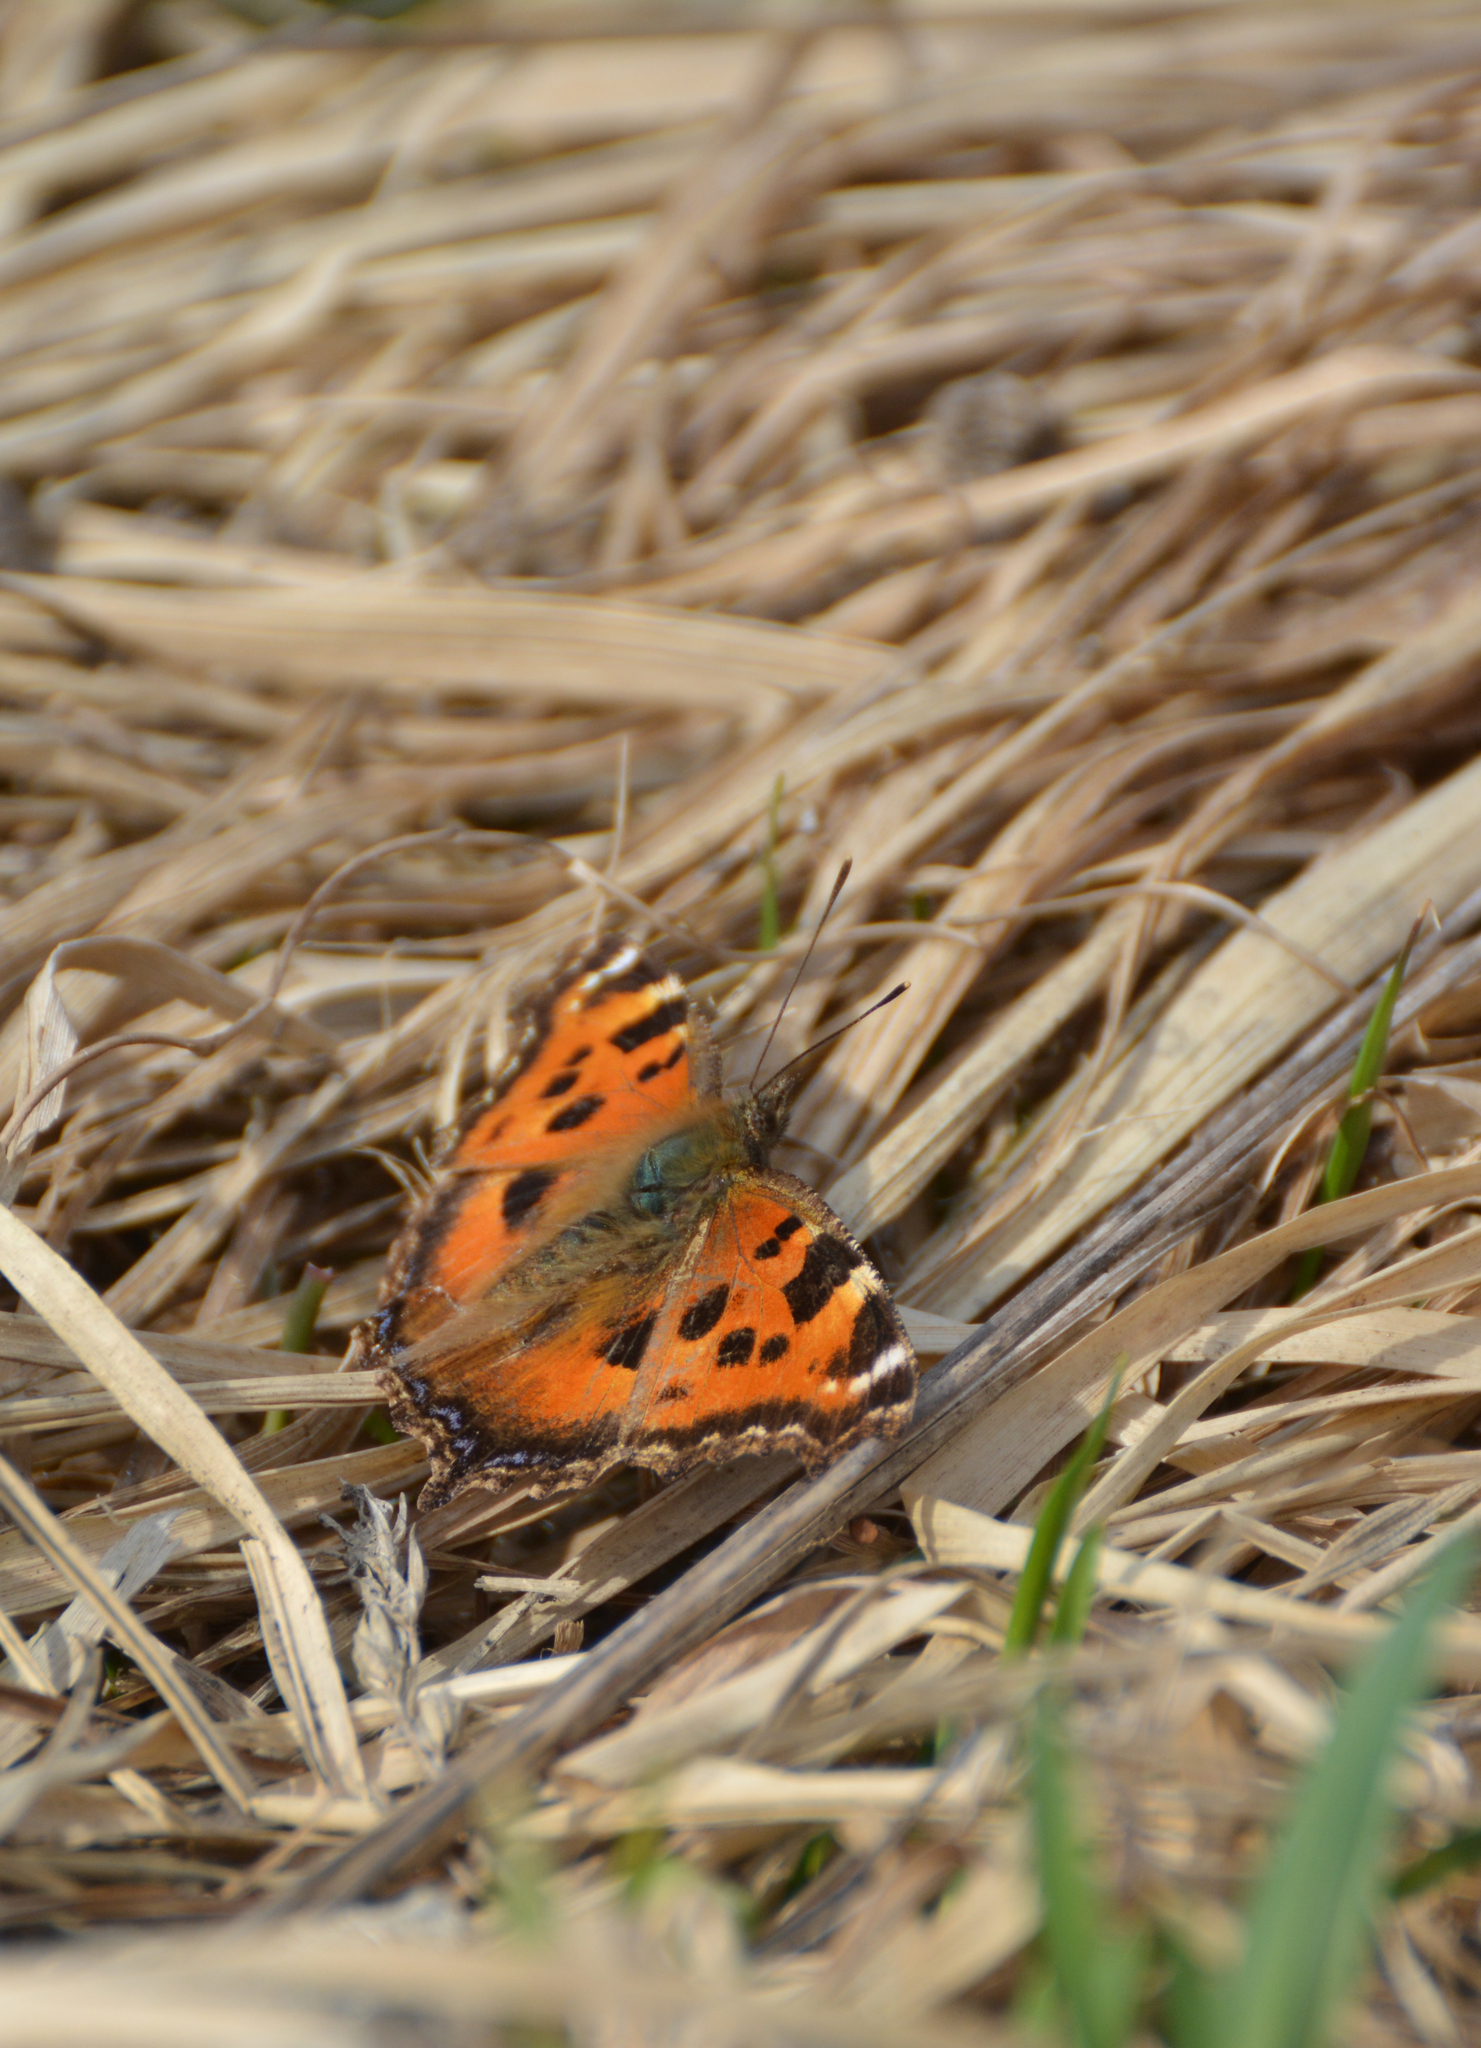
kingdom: Animalia
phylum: Arthropoda
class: Insecta
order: Lepidoptera
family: Nymphalidae
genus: Nymphalis
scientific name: Nymphalis xanthomelas
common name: Scarce tortoiseshell
